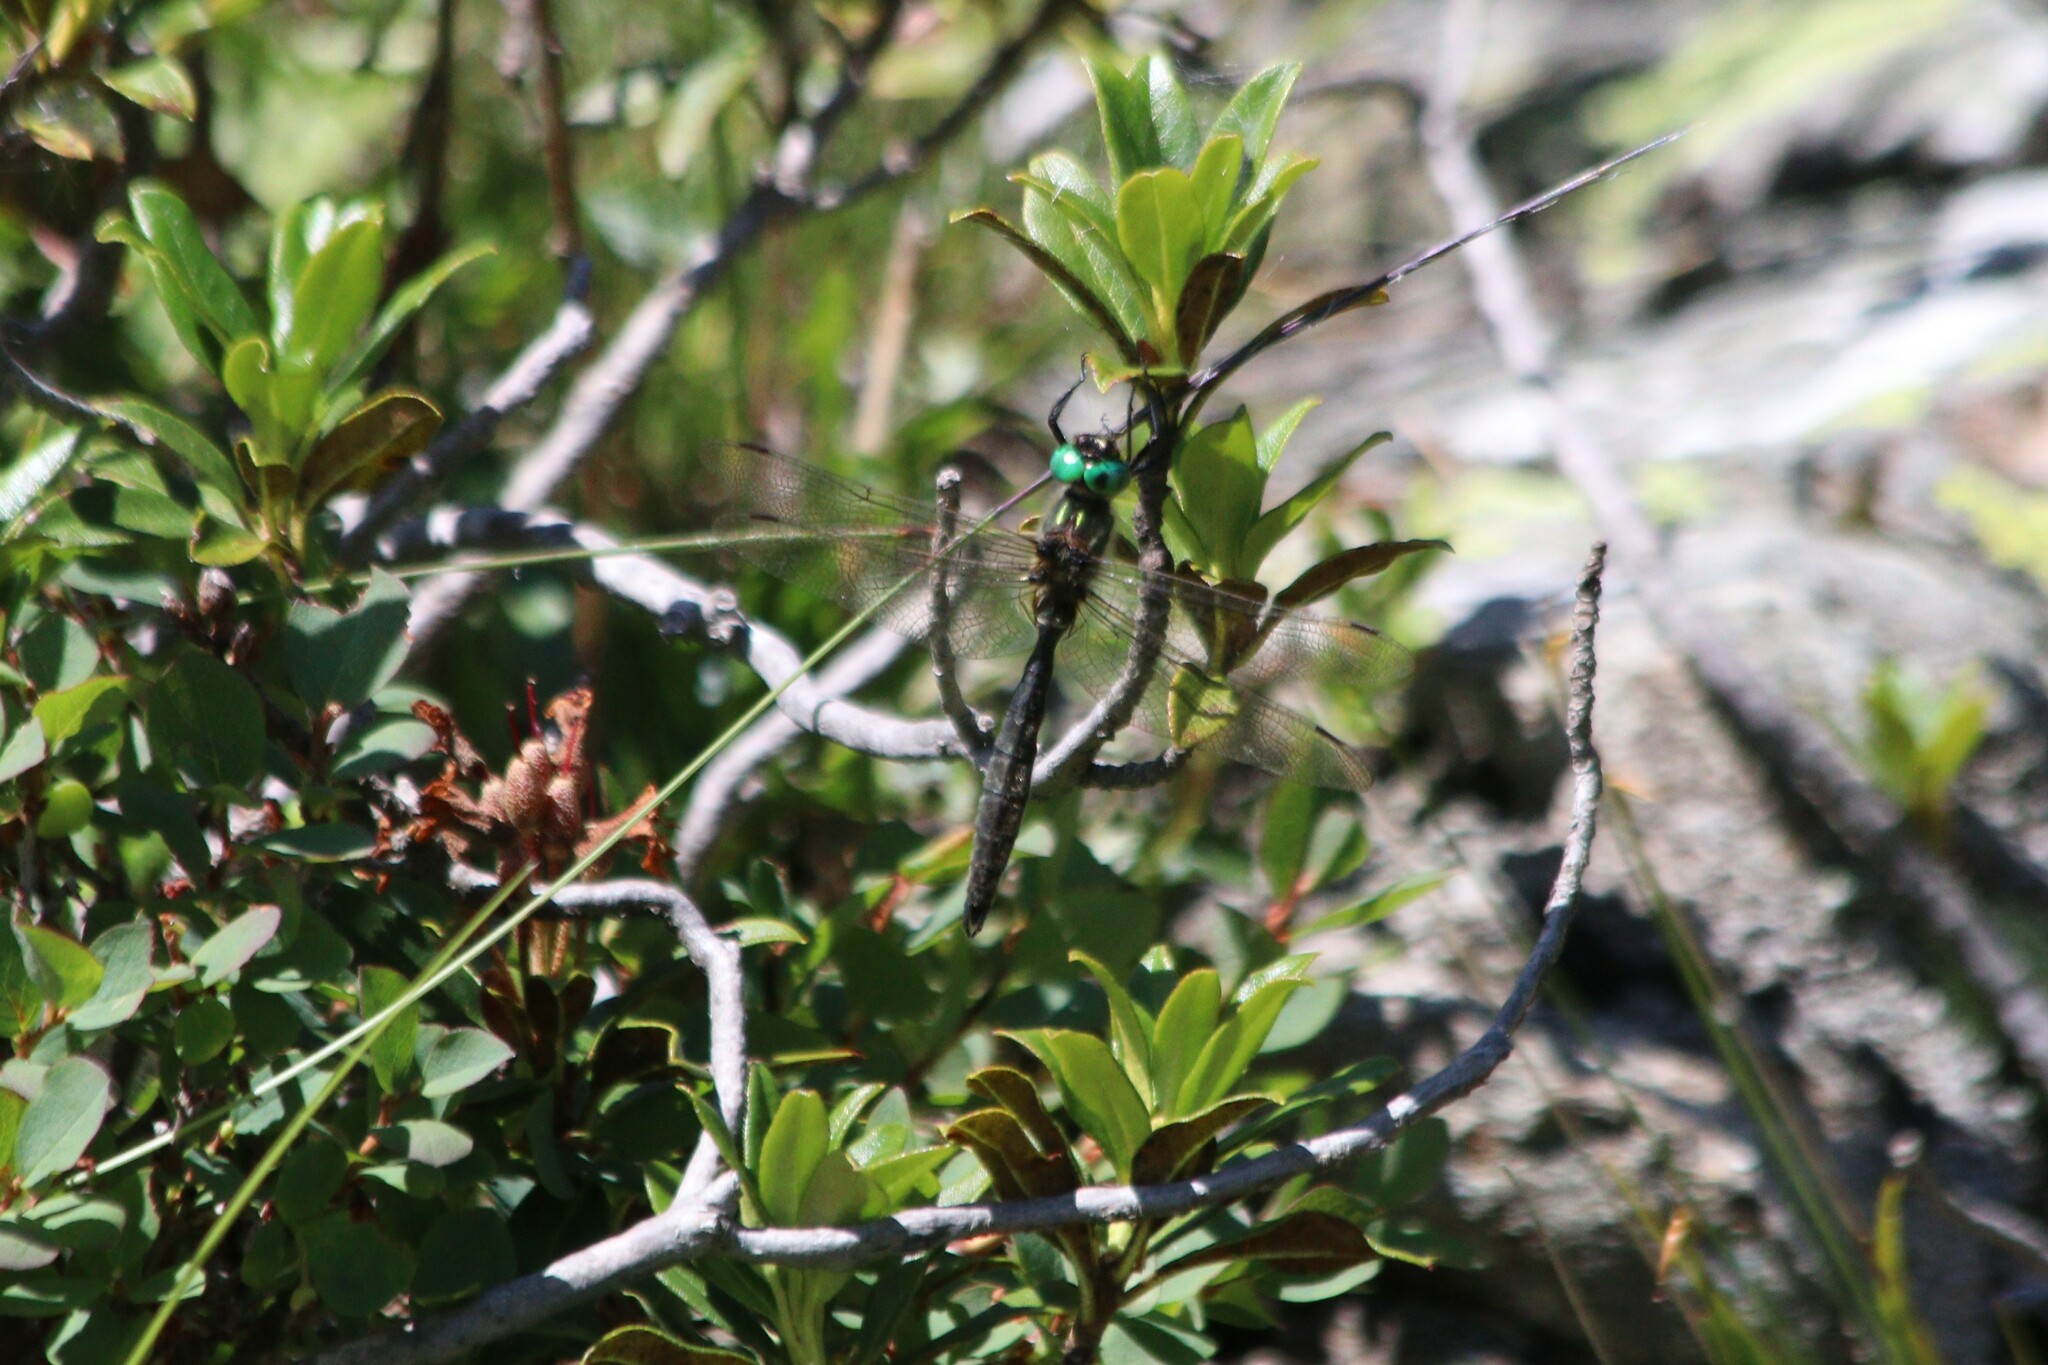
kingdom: Animalia
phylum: Arthropoda
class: Insecta
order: Odonata
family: Corduliidae
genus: Somatochlora
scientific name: Somatochlora alpestris
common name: Alpine emerald
